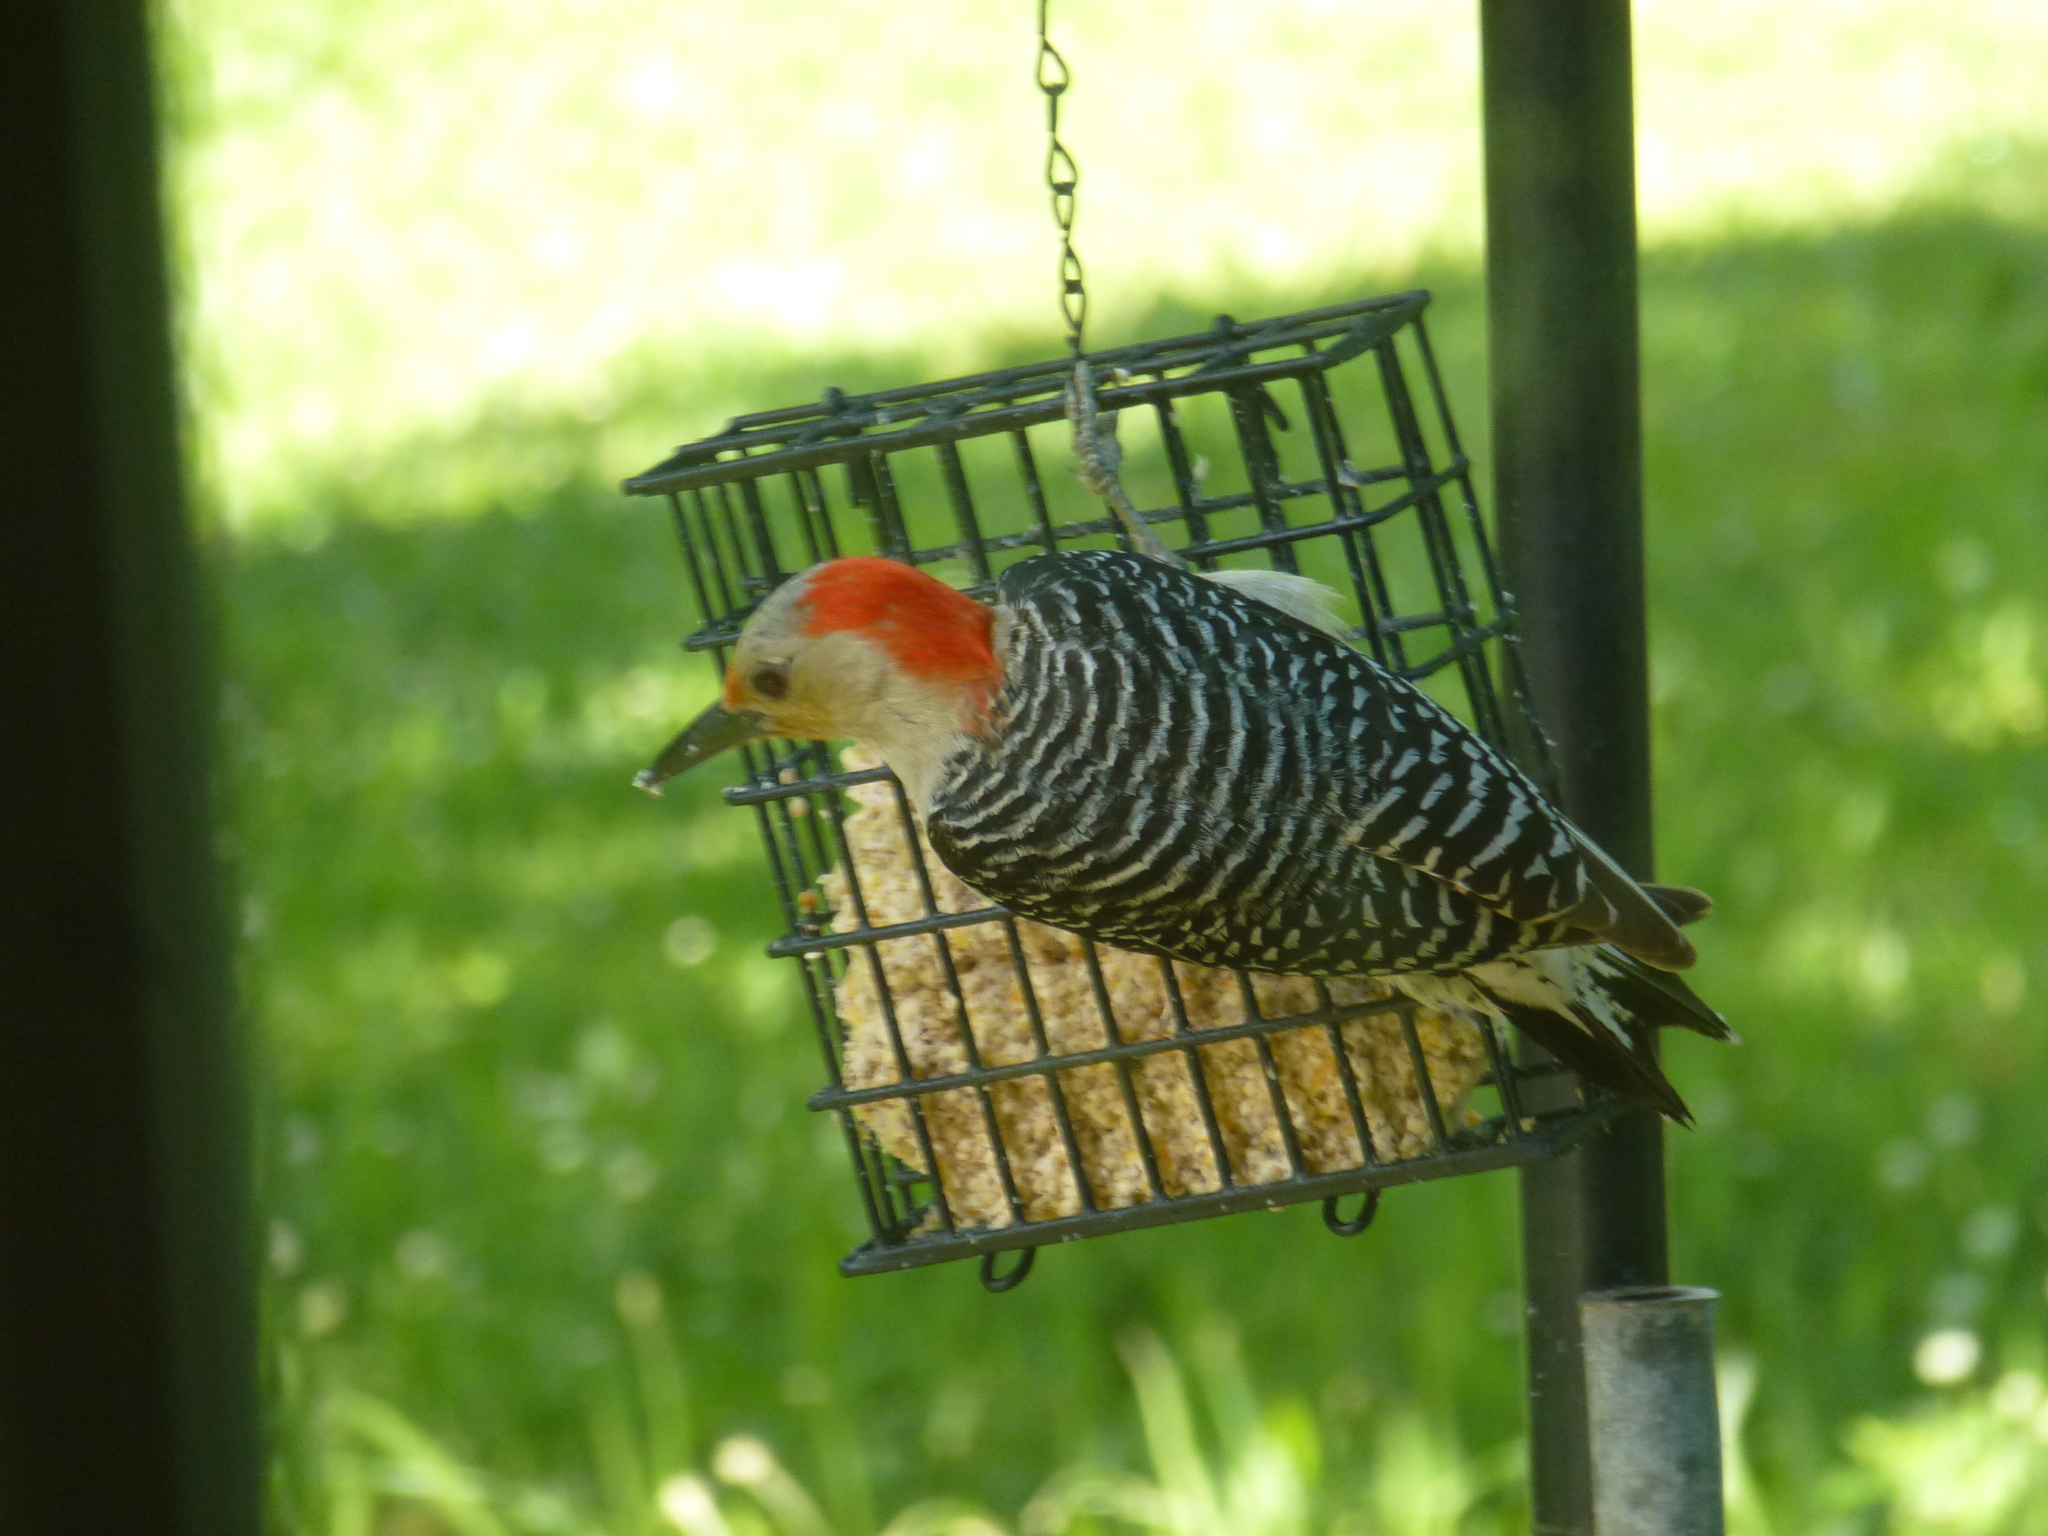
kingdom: Animalia
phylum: Chordata
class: Aves
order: Piciformes
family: Picidae
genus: Melanerpes
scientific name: Melanerpes carolinus
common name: Red-bellied woodpecker
